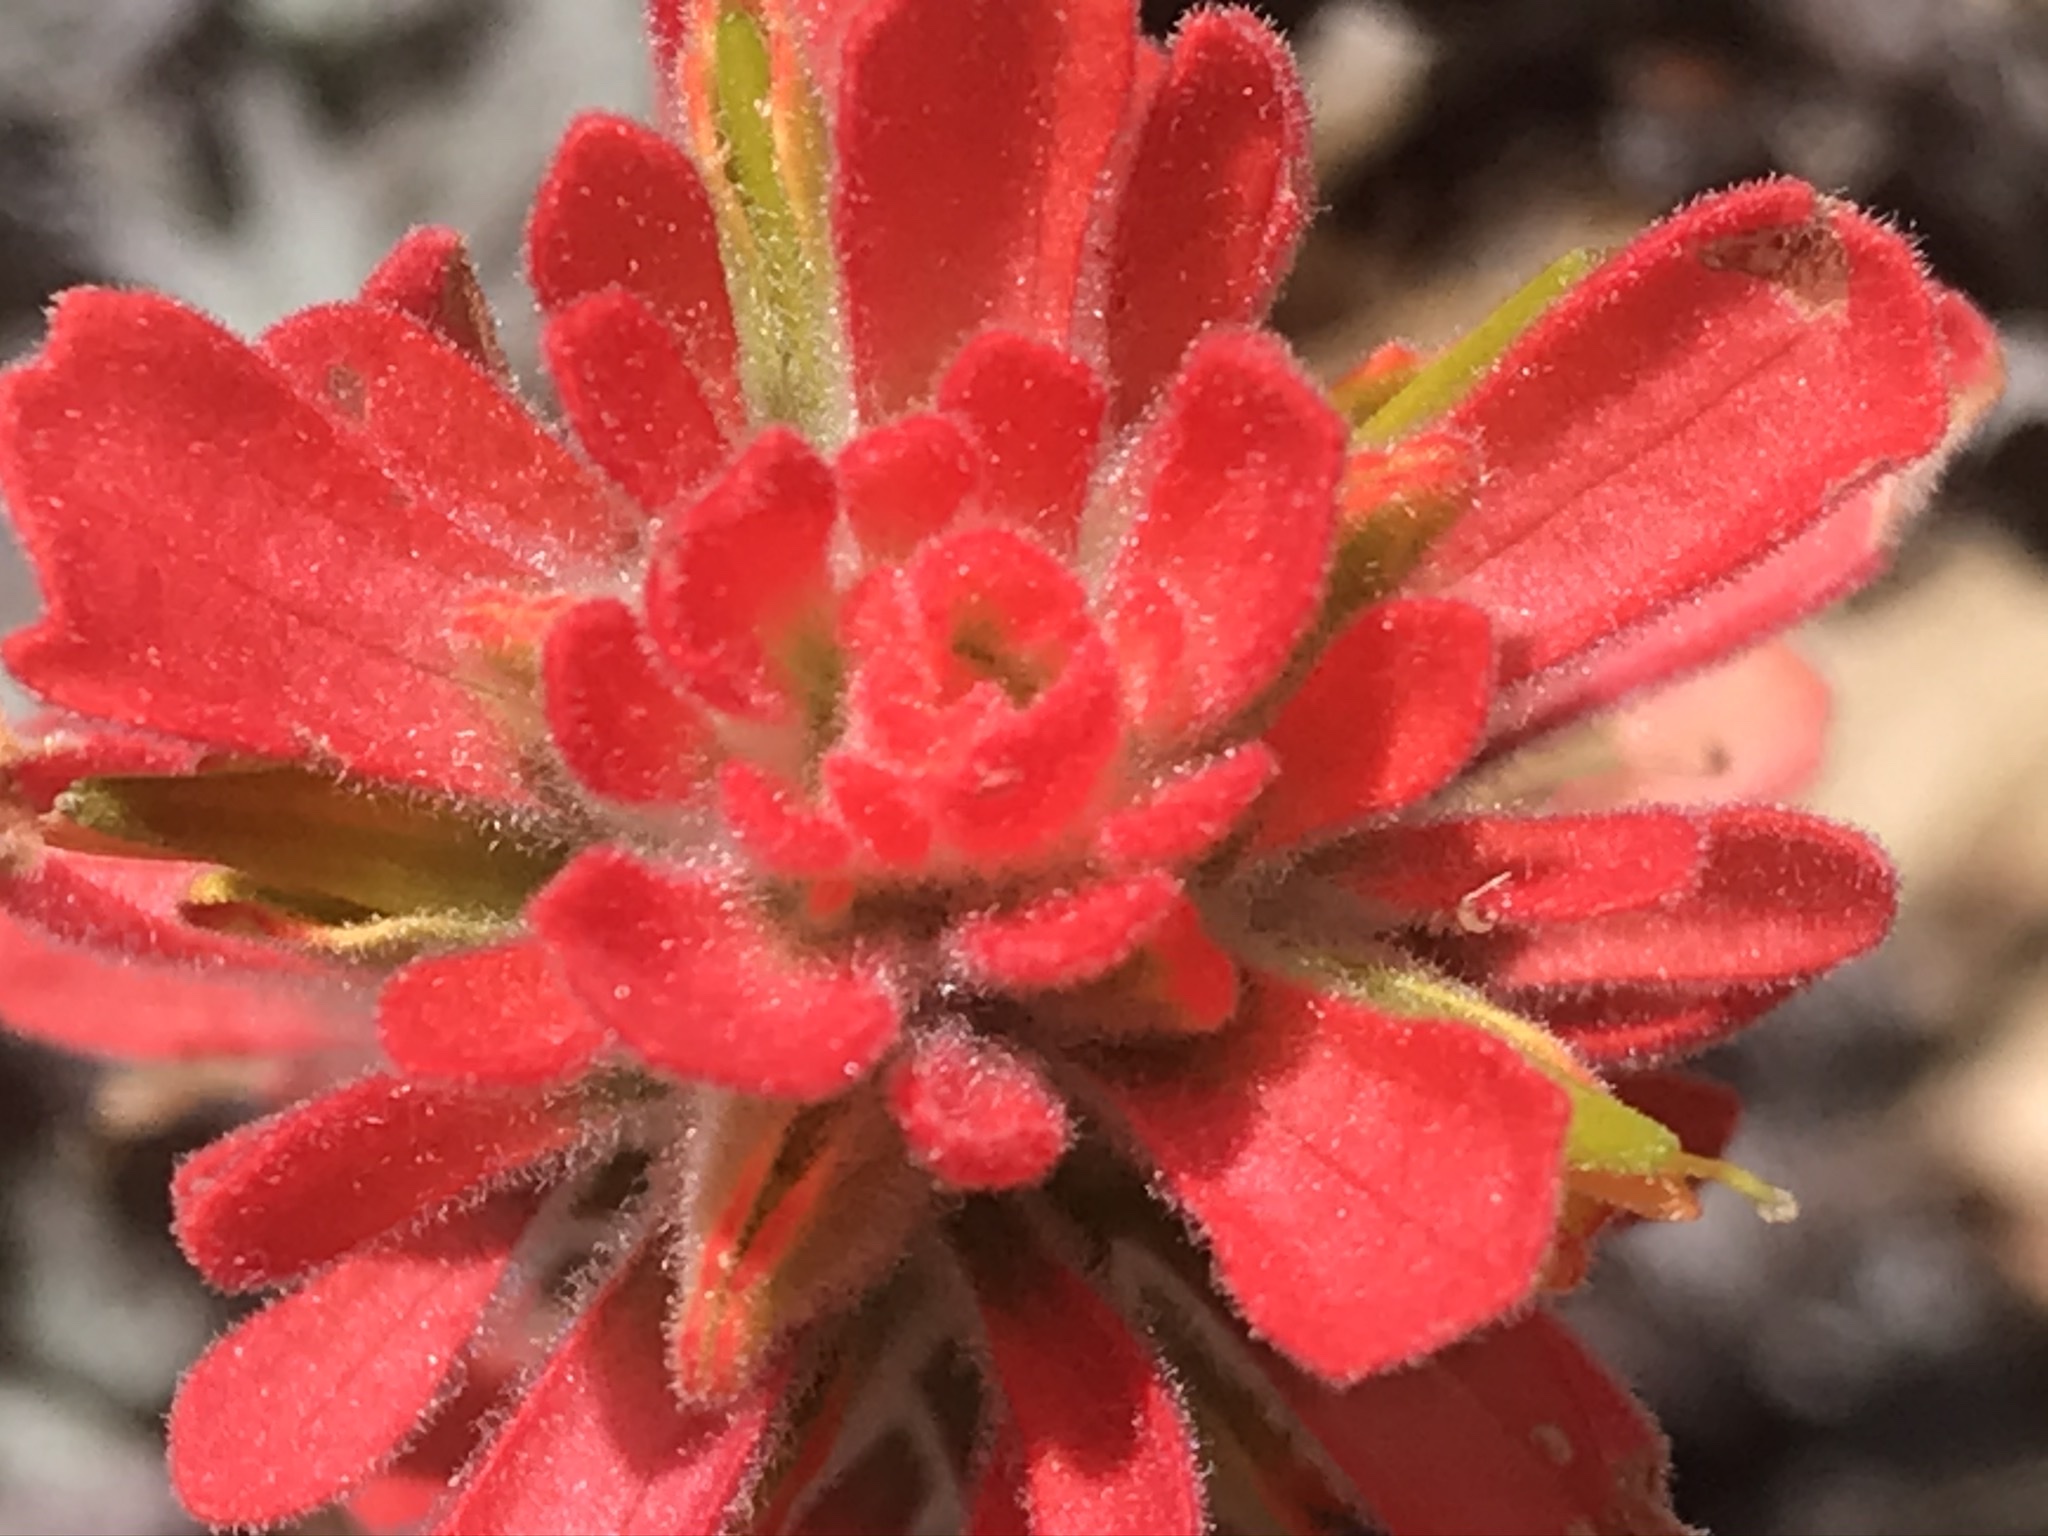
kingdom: Plantae
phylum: Tracheophyta
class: Magnoliopsida
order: Lamiales
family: Orobanchaceae
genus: Castilleja
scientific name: Castilleja foliolosa
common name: Woolly indian paintbrush
